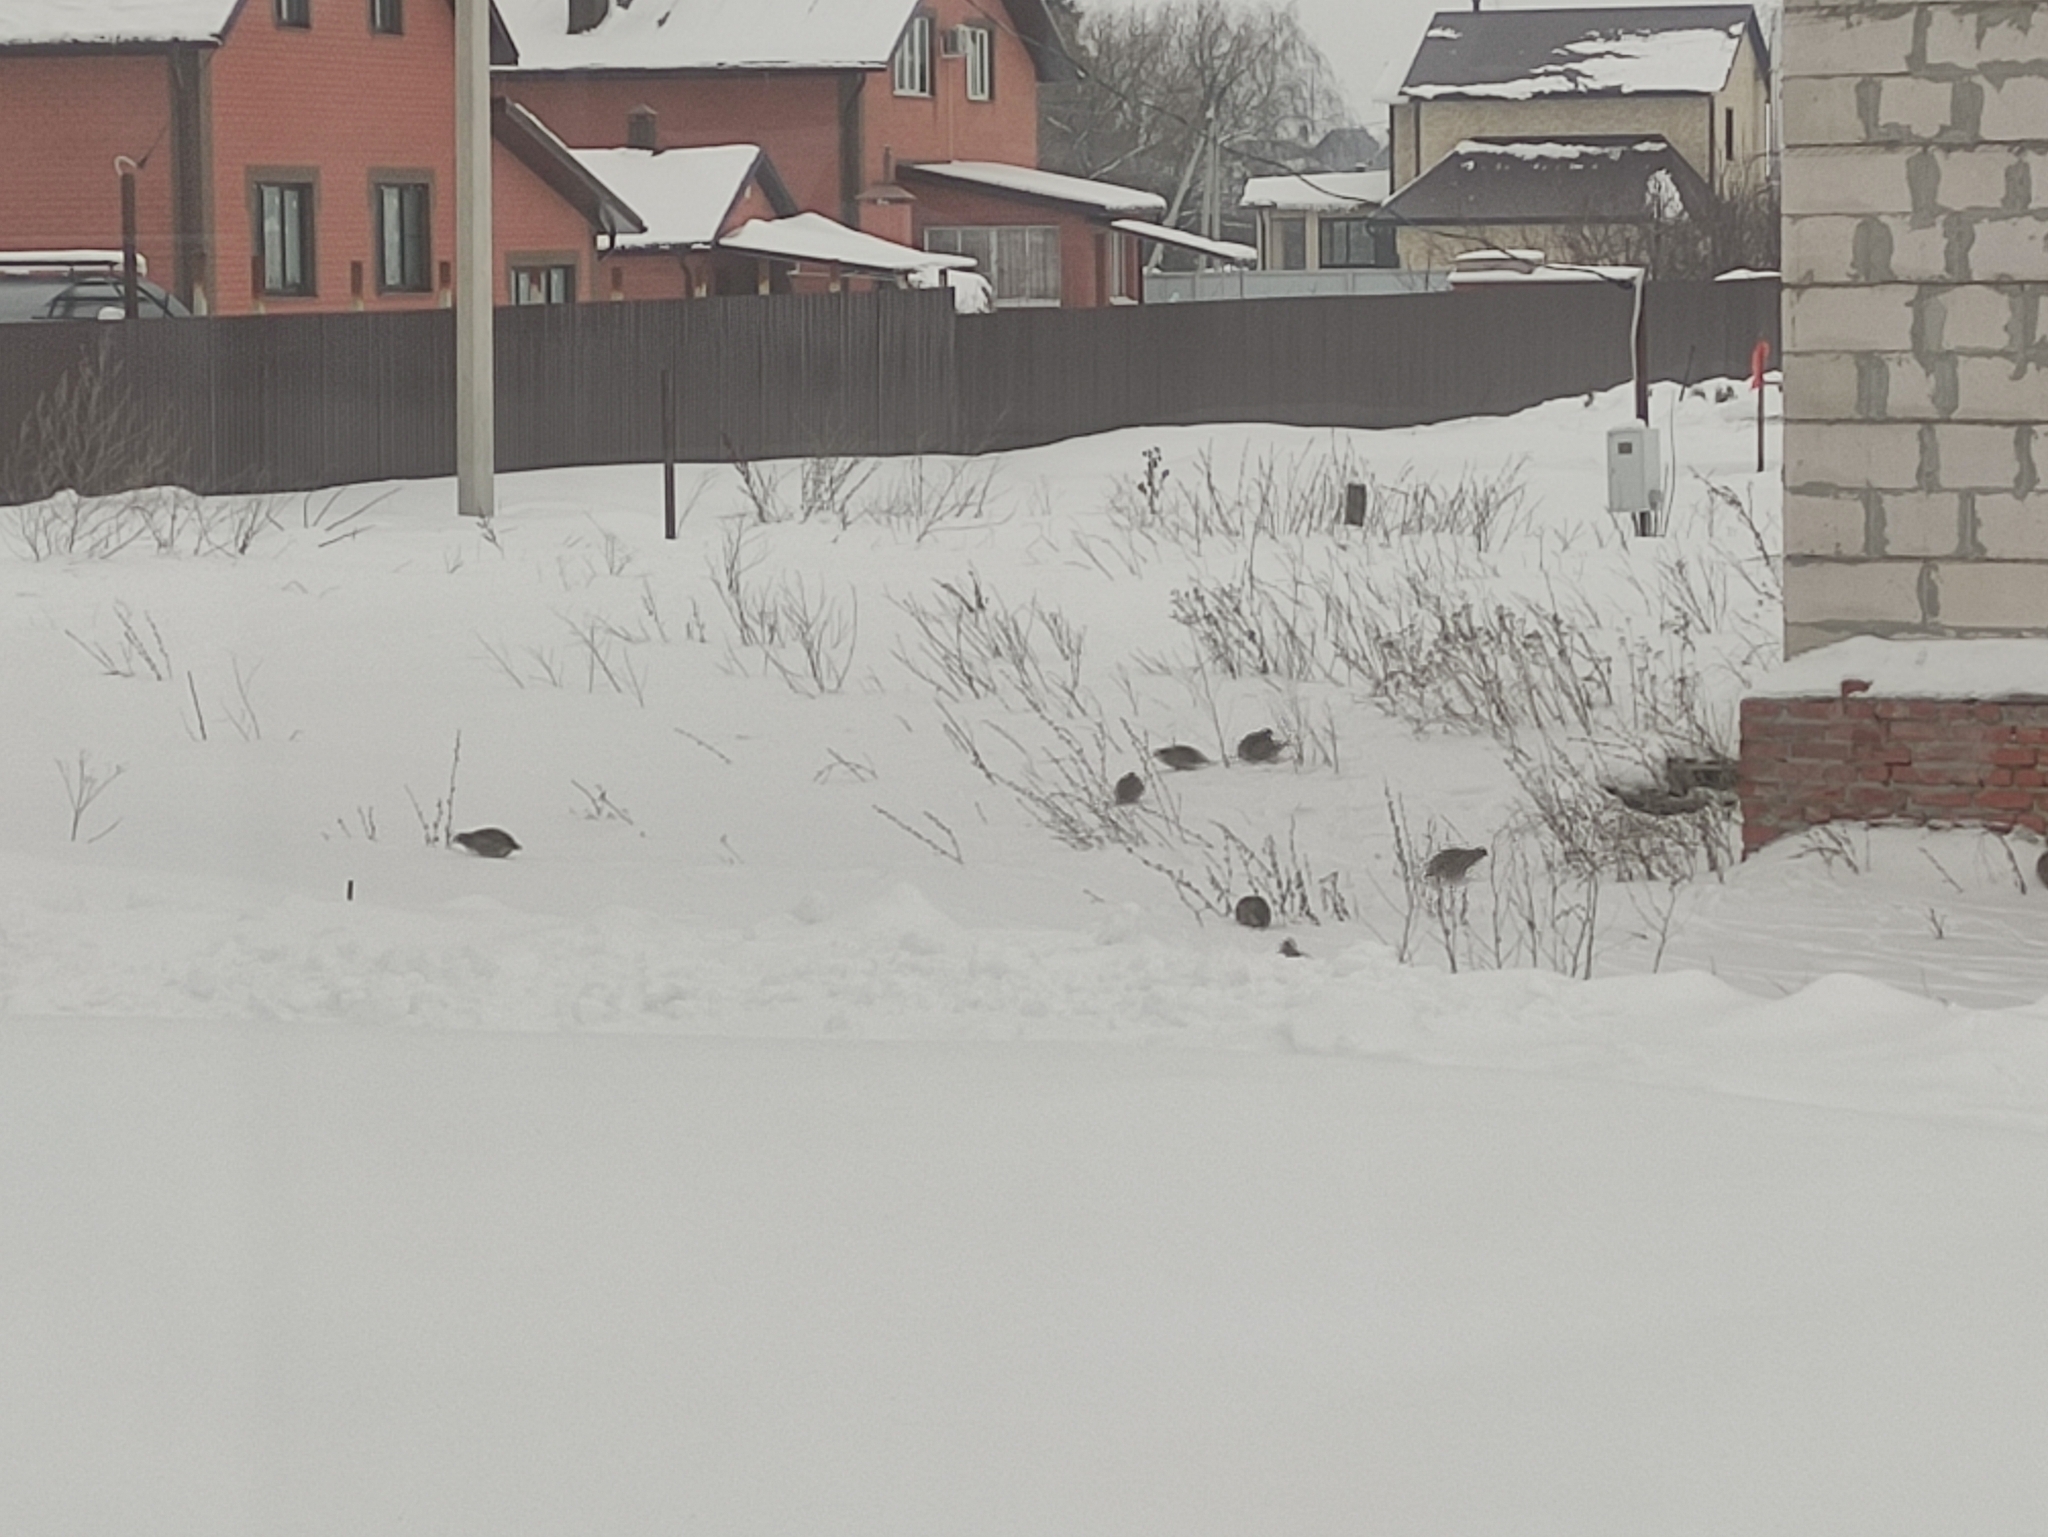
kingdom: Animalia
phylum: Chordata
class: Aves
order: Galliformes
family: Phasianidae
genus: Perdix
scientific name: Perdix perdix
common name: Grey partridge
